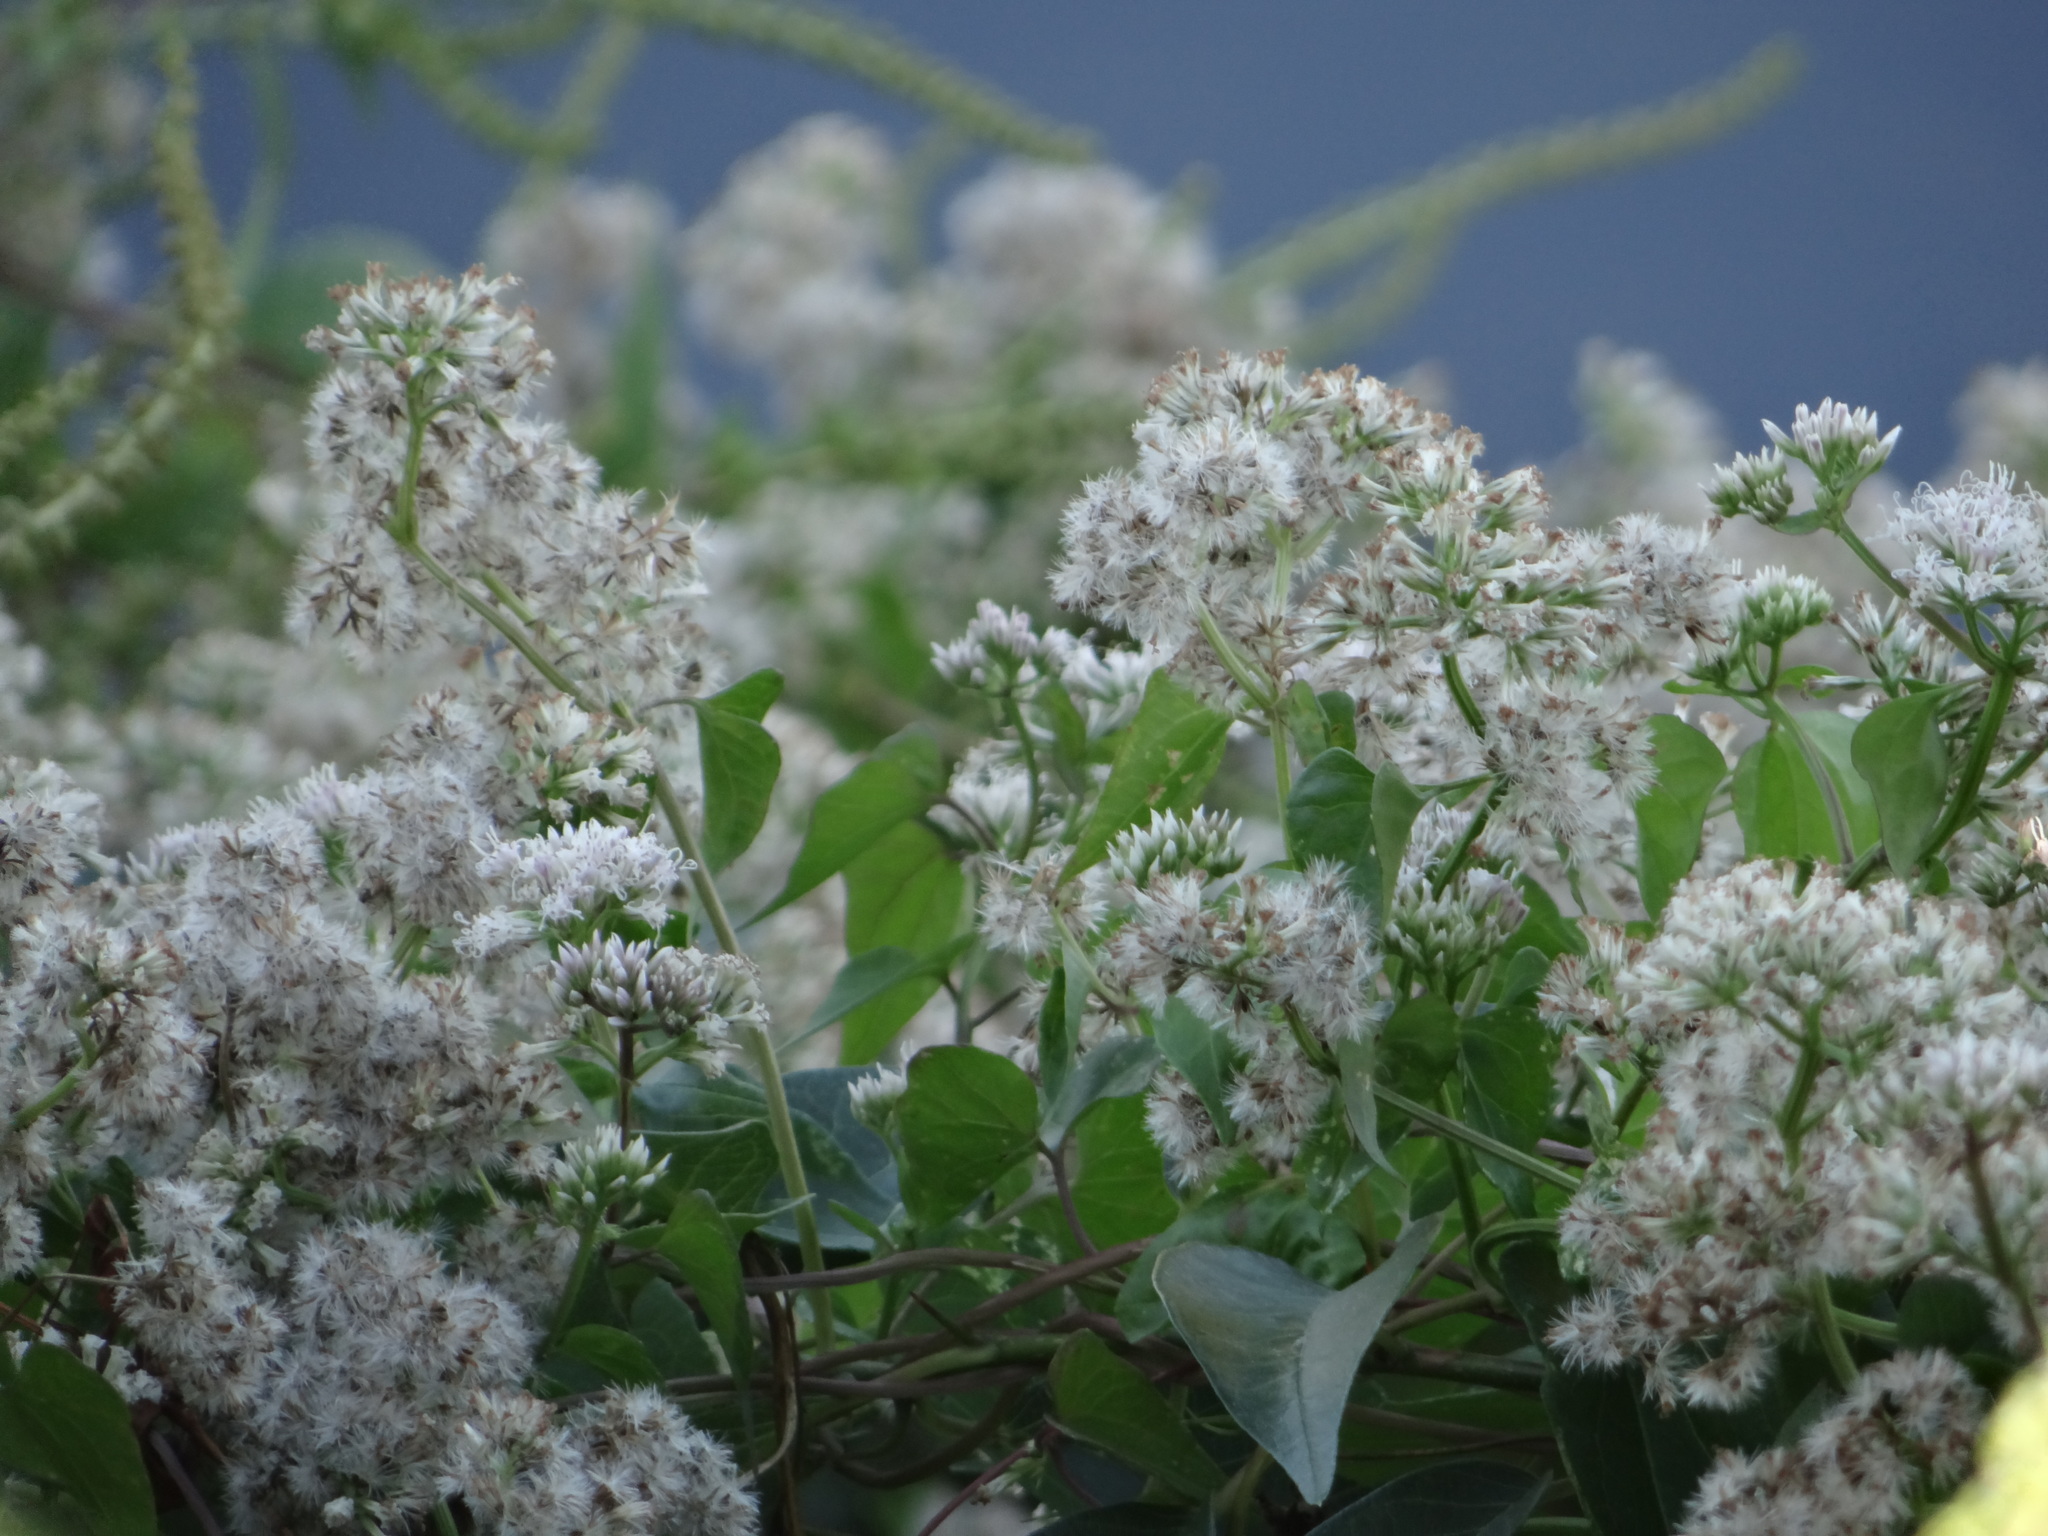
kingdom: Plantae
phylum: Tracheophyta
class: Magnoliopsida
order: Asterales
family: Asteraceae
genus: Mikania
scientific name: Mikania scandens
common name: Climbing hempvine
